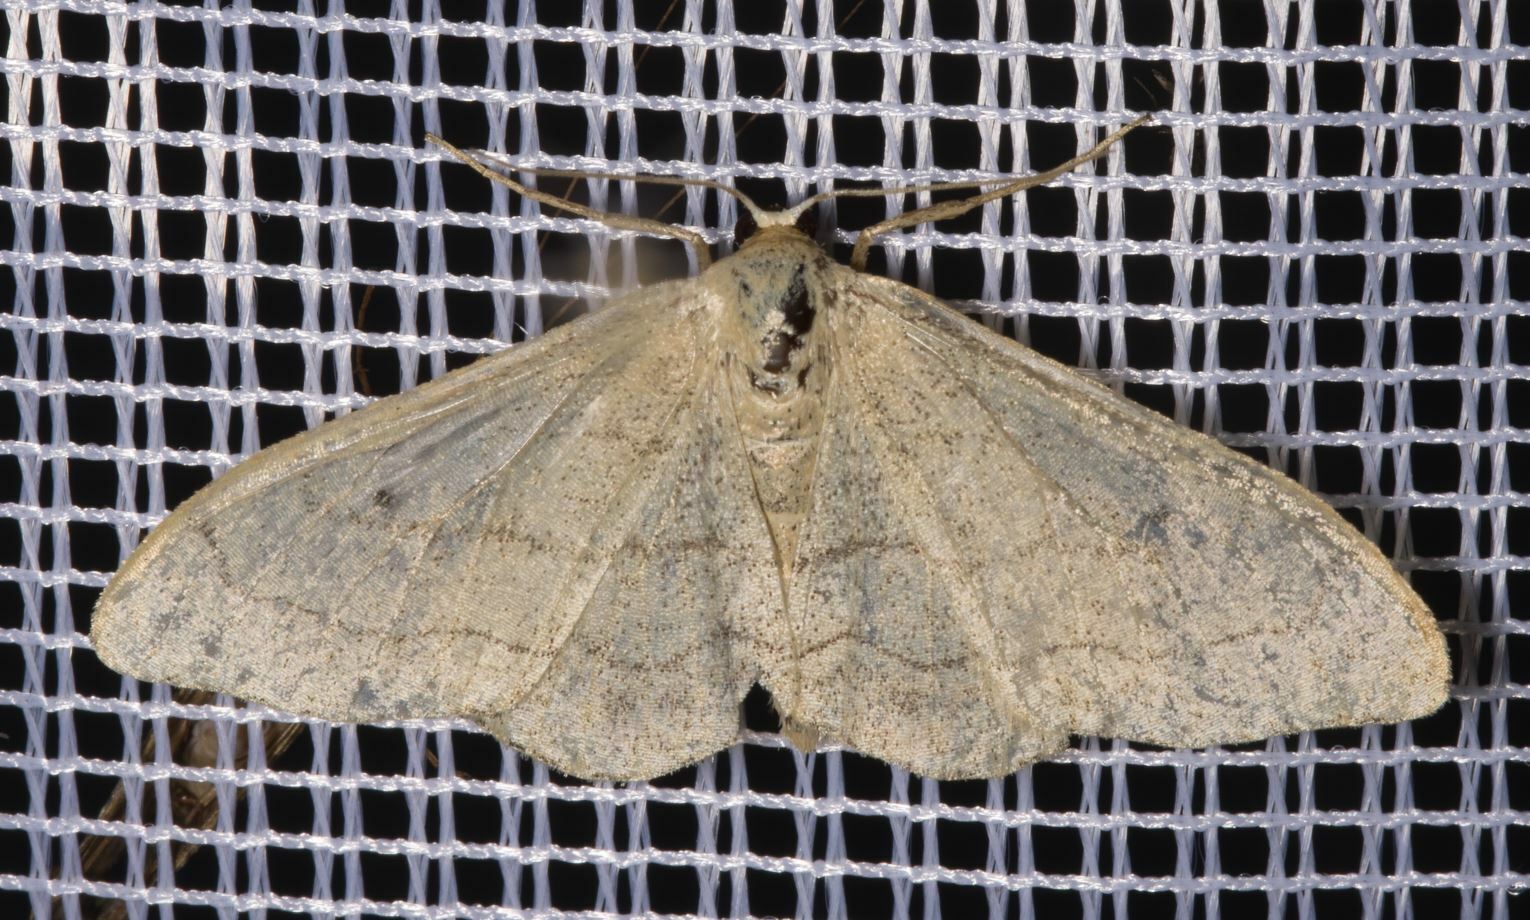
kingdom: Animalia
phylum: Arthropoda
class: Insecta
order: Lepidoptera
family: Geometridae
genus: Idaea
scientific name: Idaea aversata
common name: Riband wave
